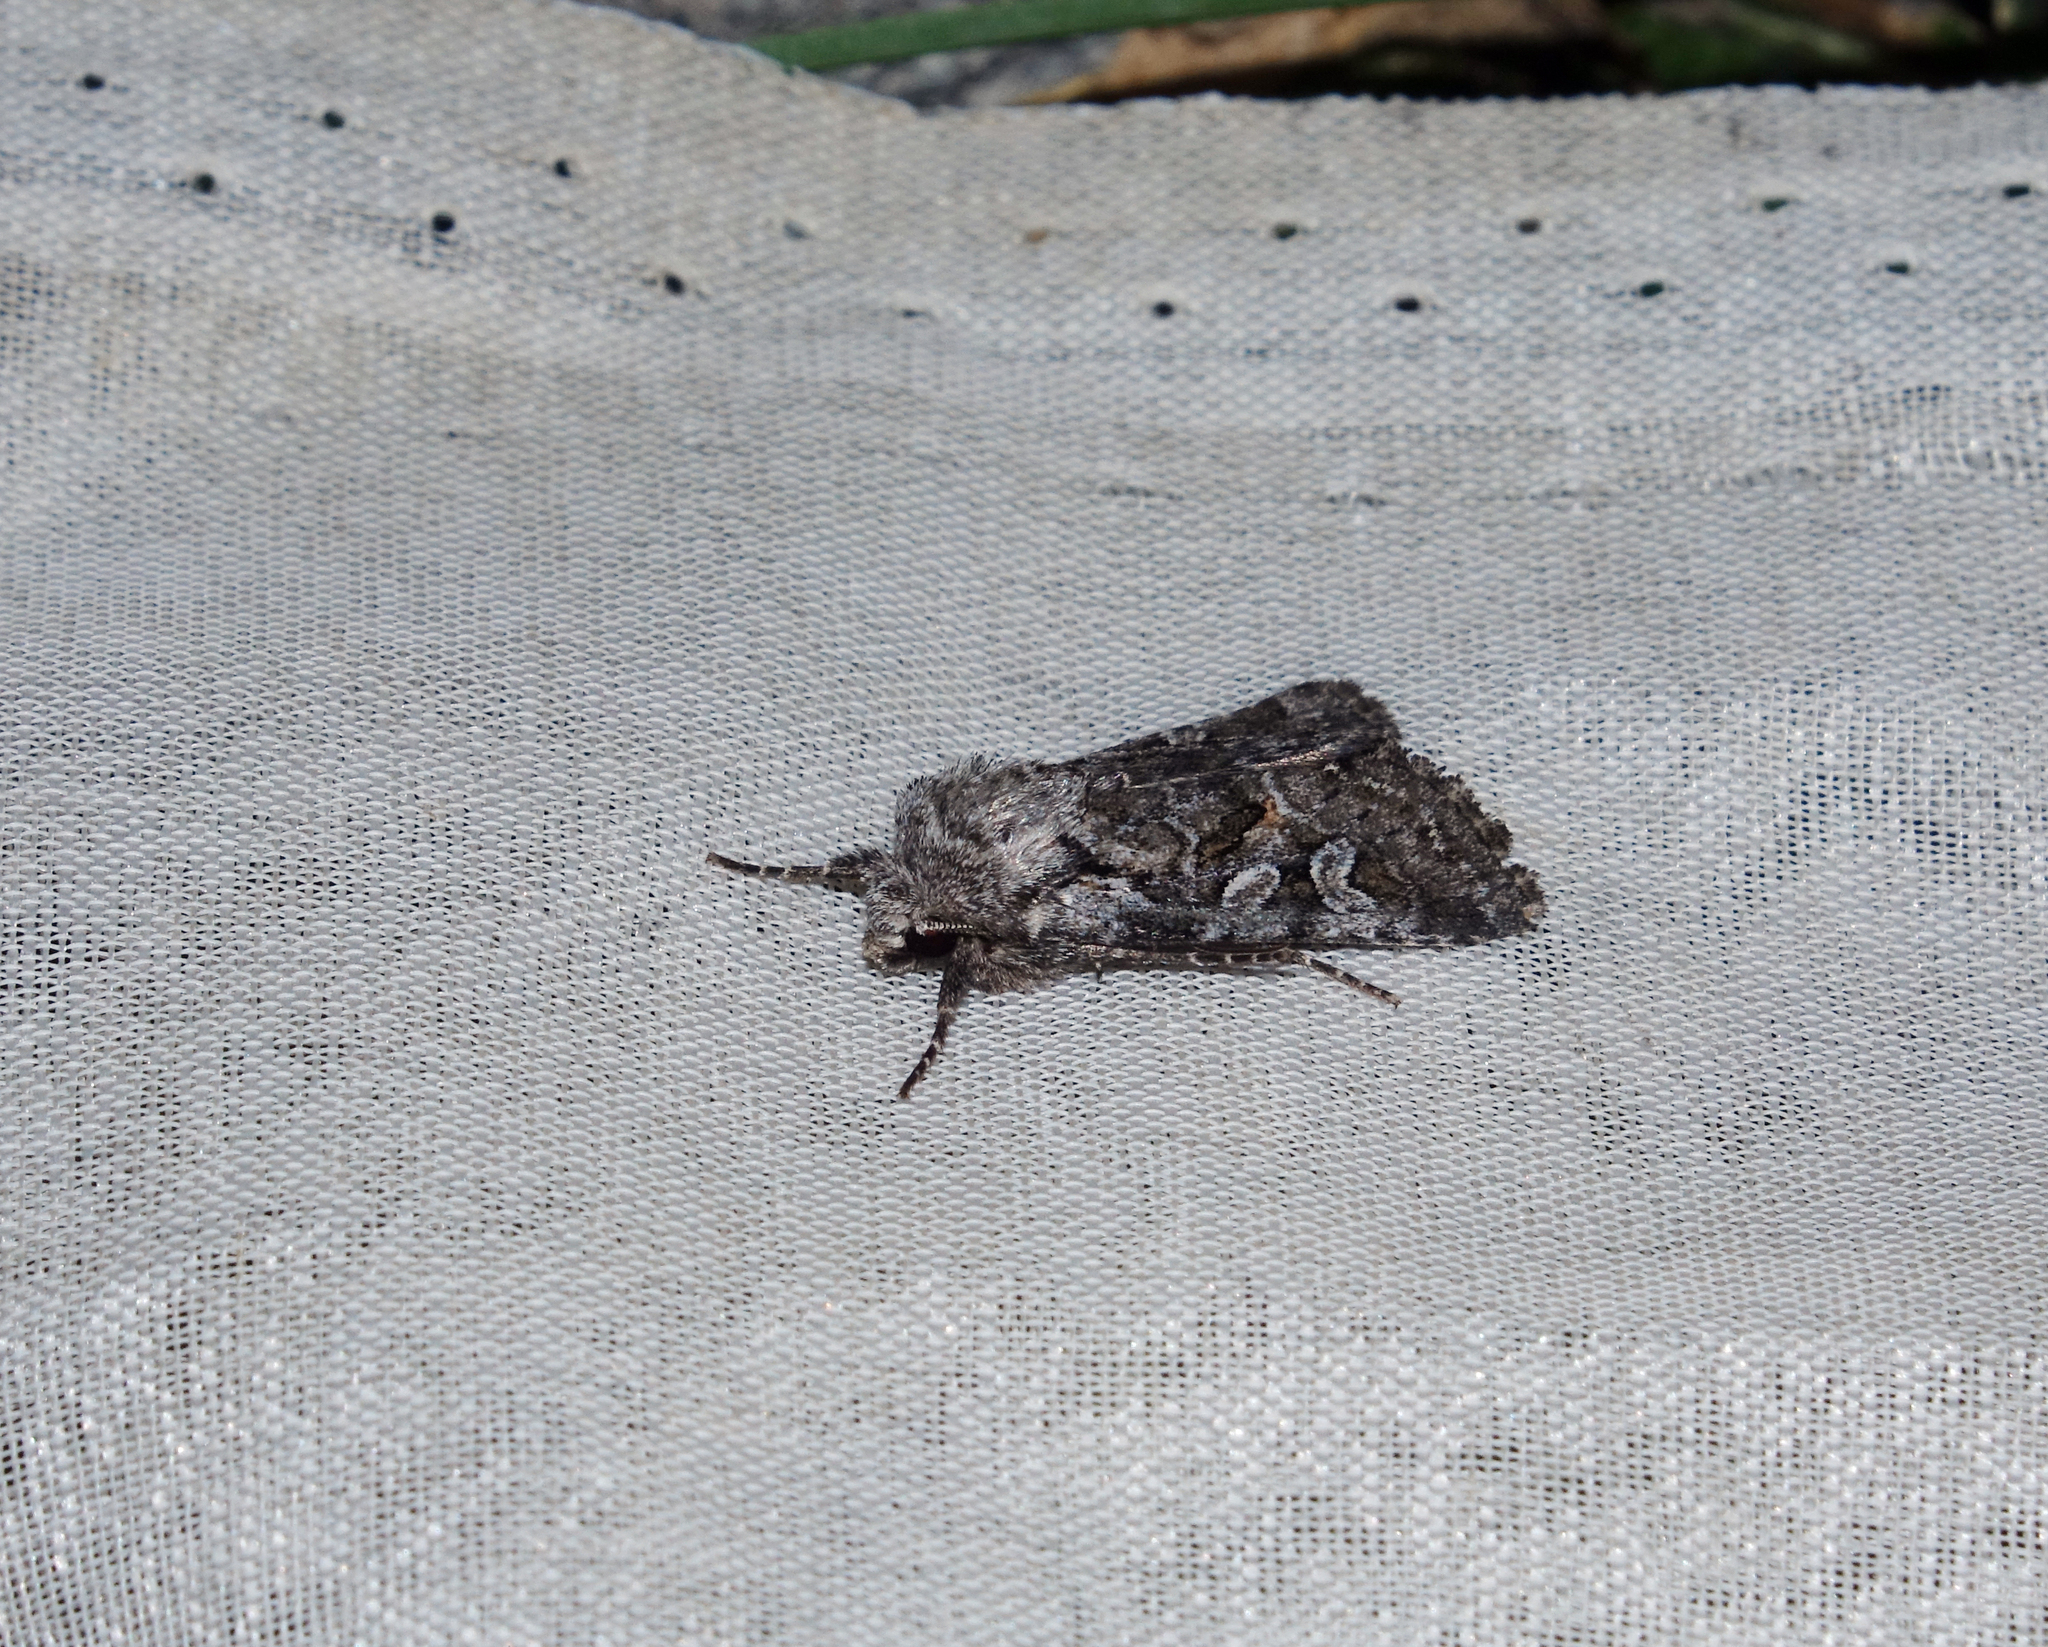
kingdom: Animalia
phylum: Arthropoda
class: Insecta
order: Lepidoptera
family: Noctuidae
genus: Lasionycta
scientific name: Lasionycta proxima
